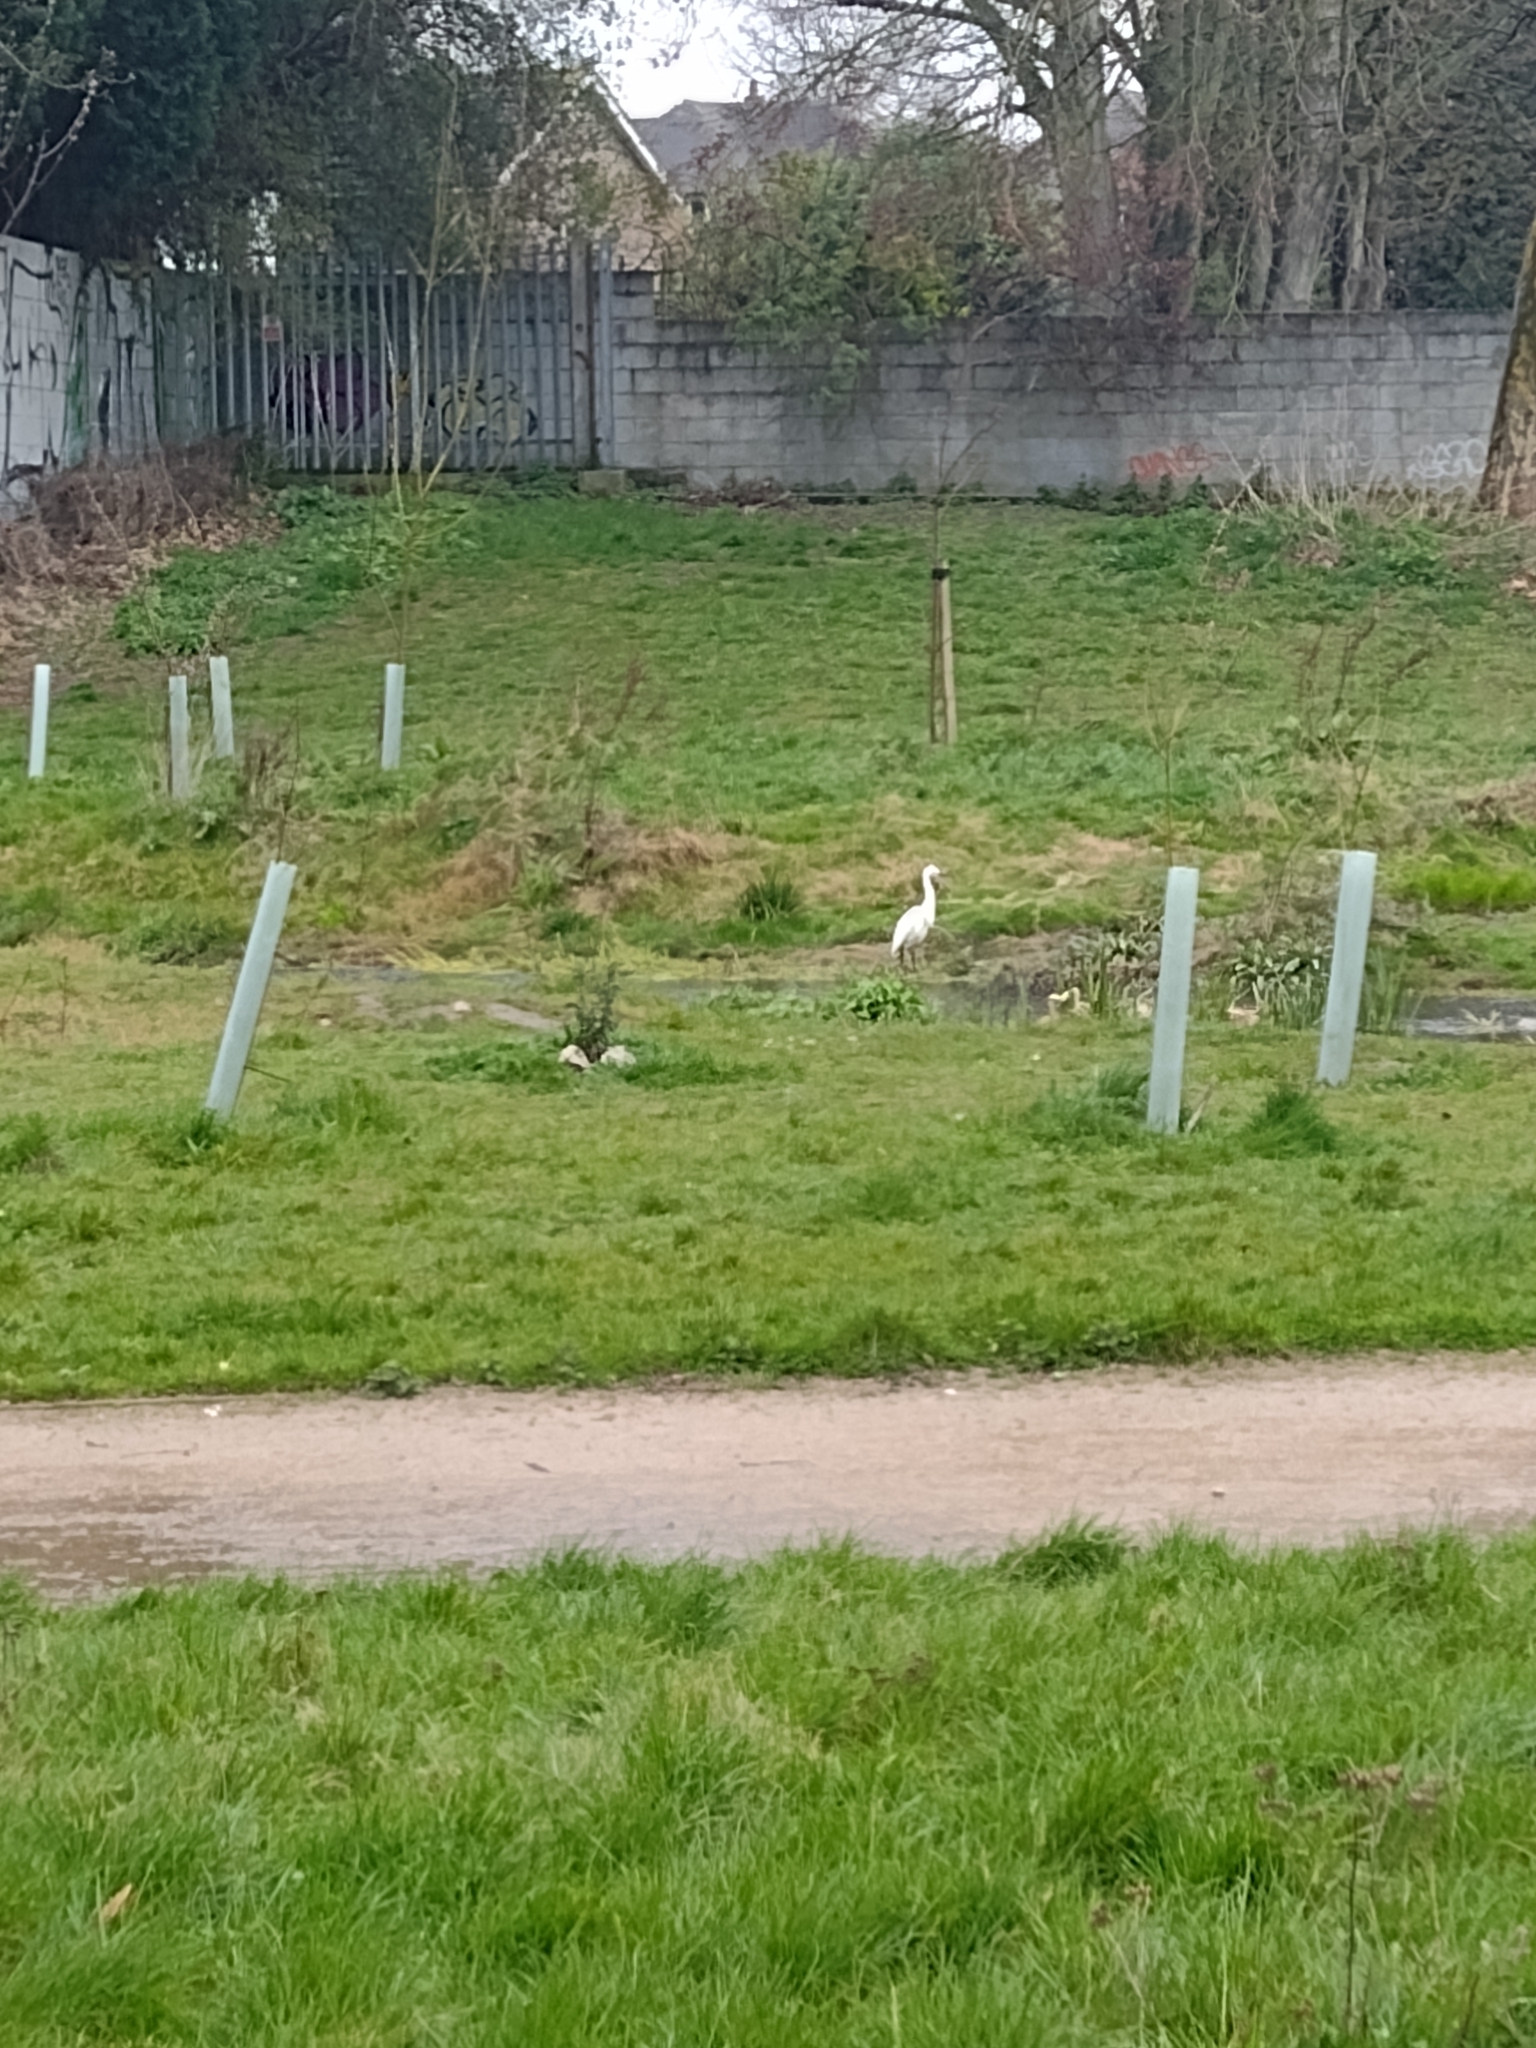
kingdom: Animalia
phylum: Chordata
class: Aves
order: Pelecaniformes
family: Ardeidae
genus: Egretta
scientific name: Egretta garzetta
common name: Little egret
